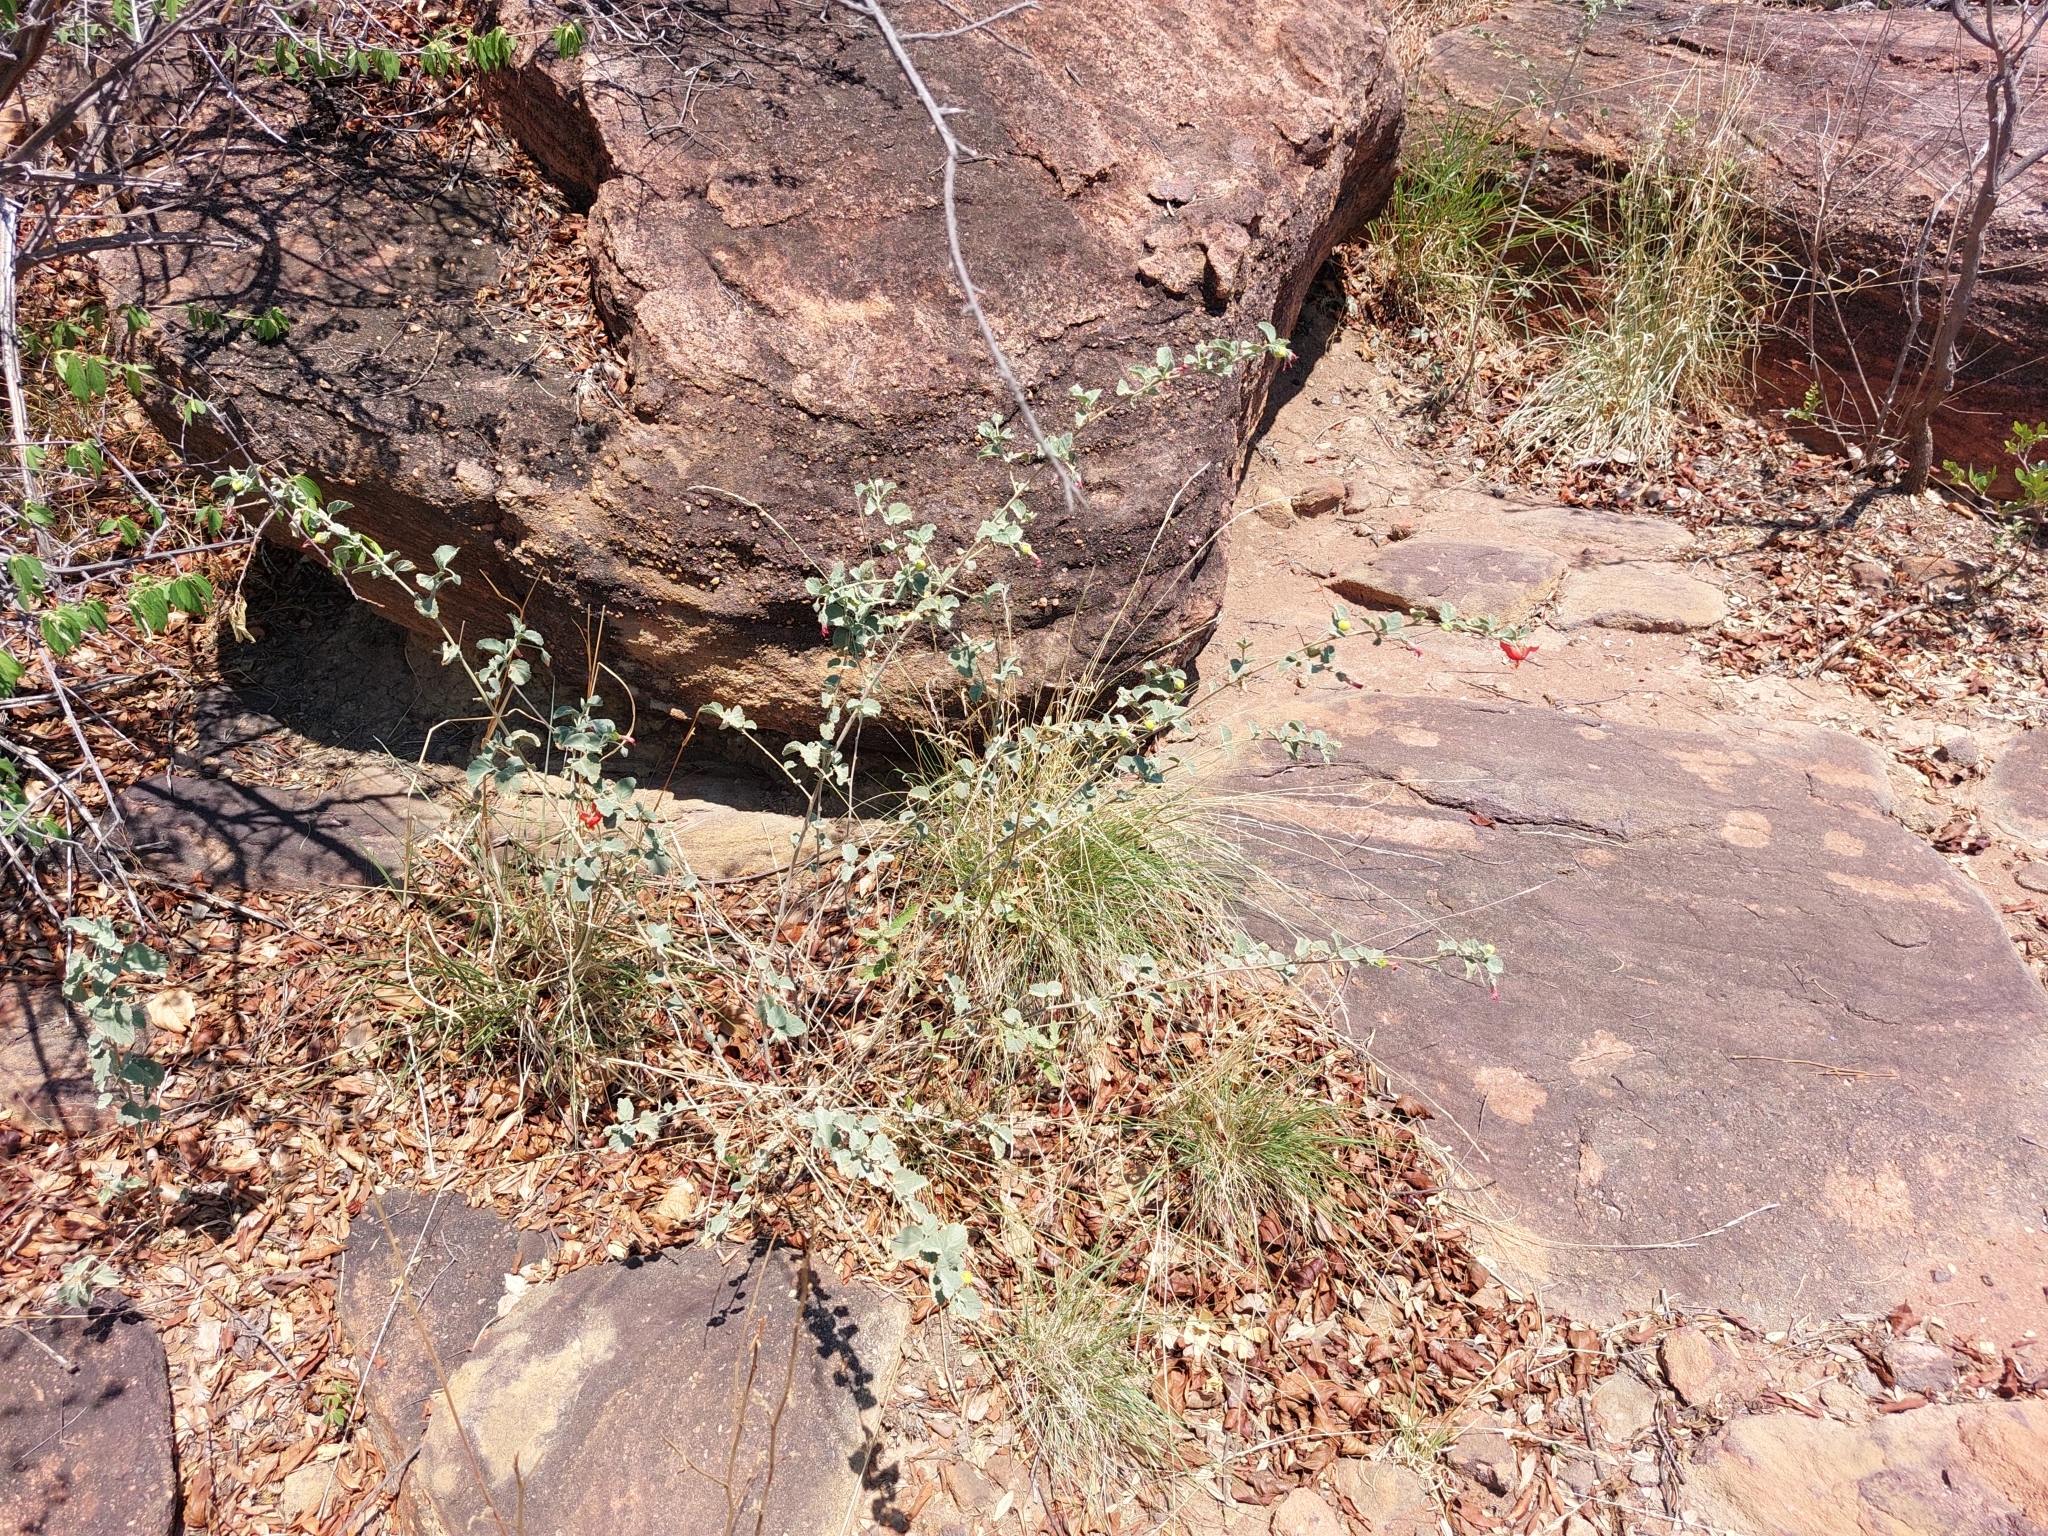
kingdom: Plantae
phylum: Tracheophyta
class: Magnoliopsida
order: Malvales
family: Malvaceae
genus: Hibiscus
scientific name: Hibiscus waterbergensis
